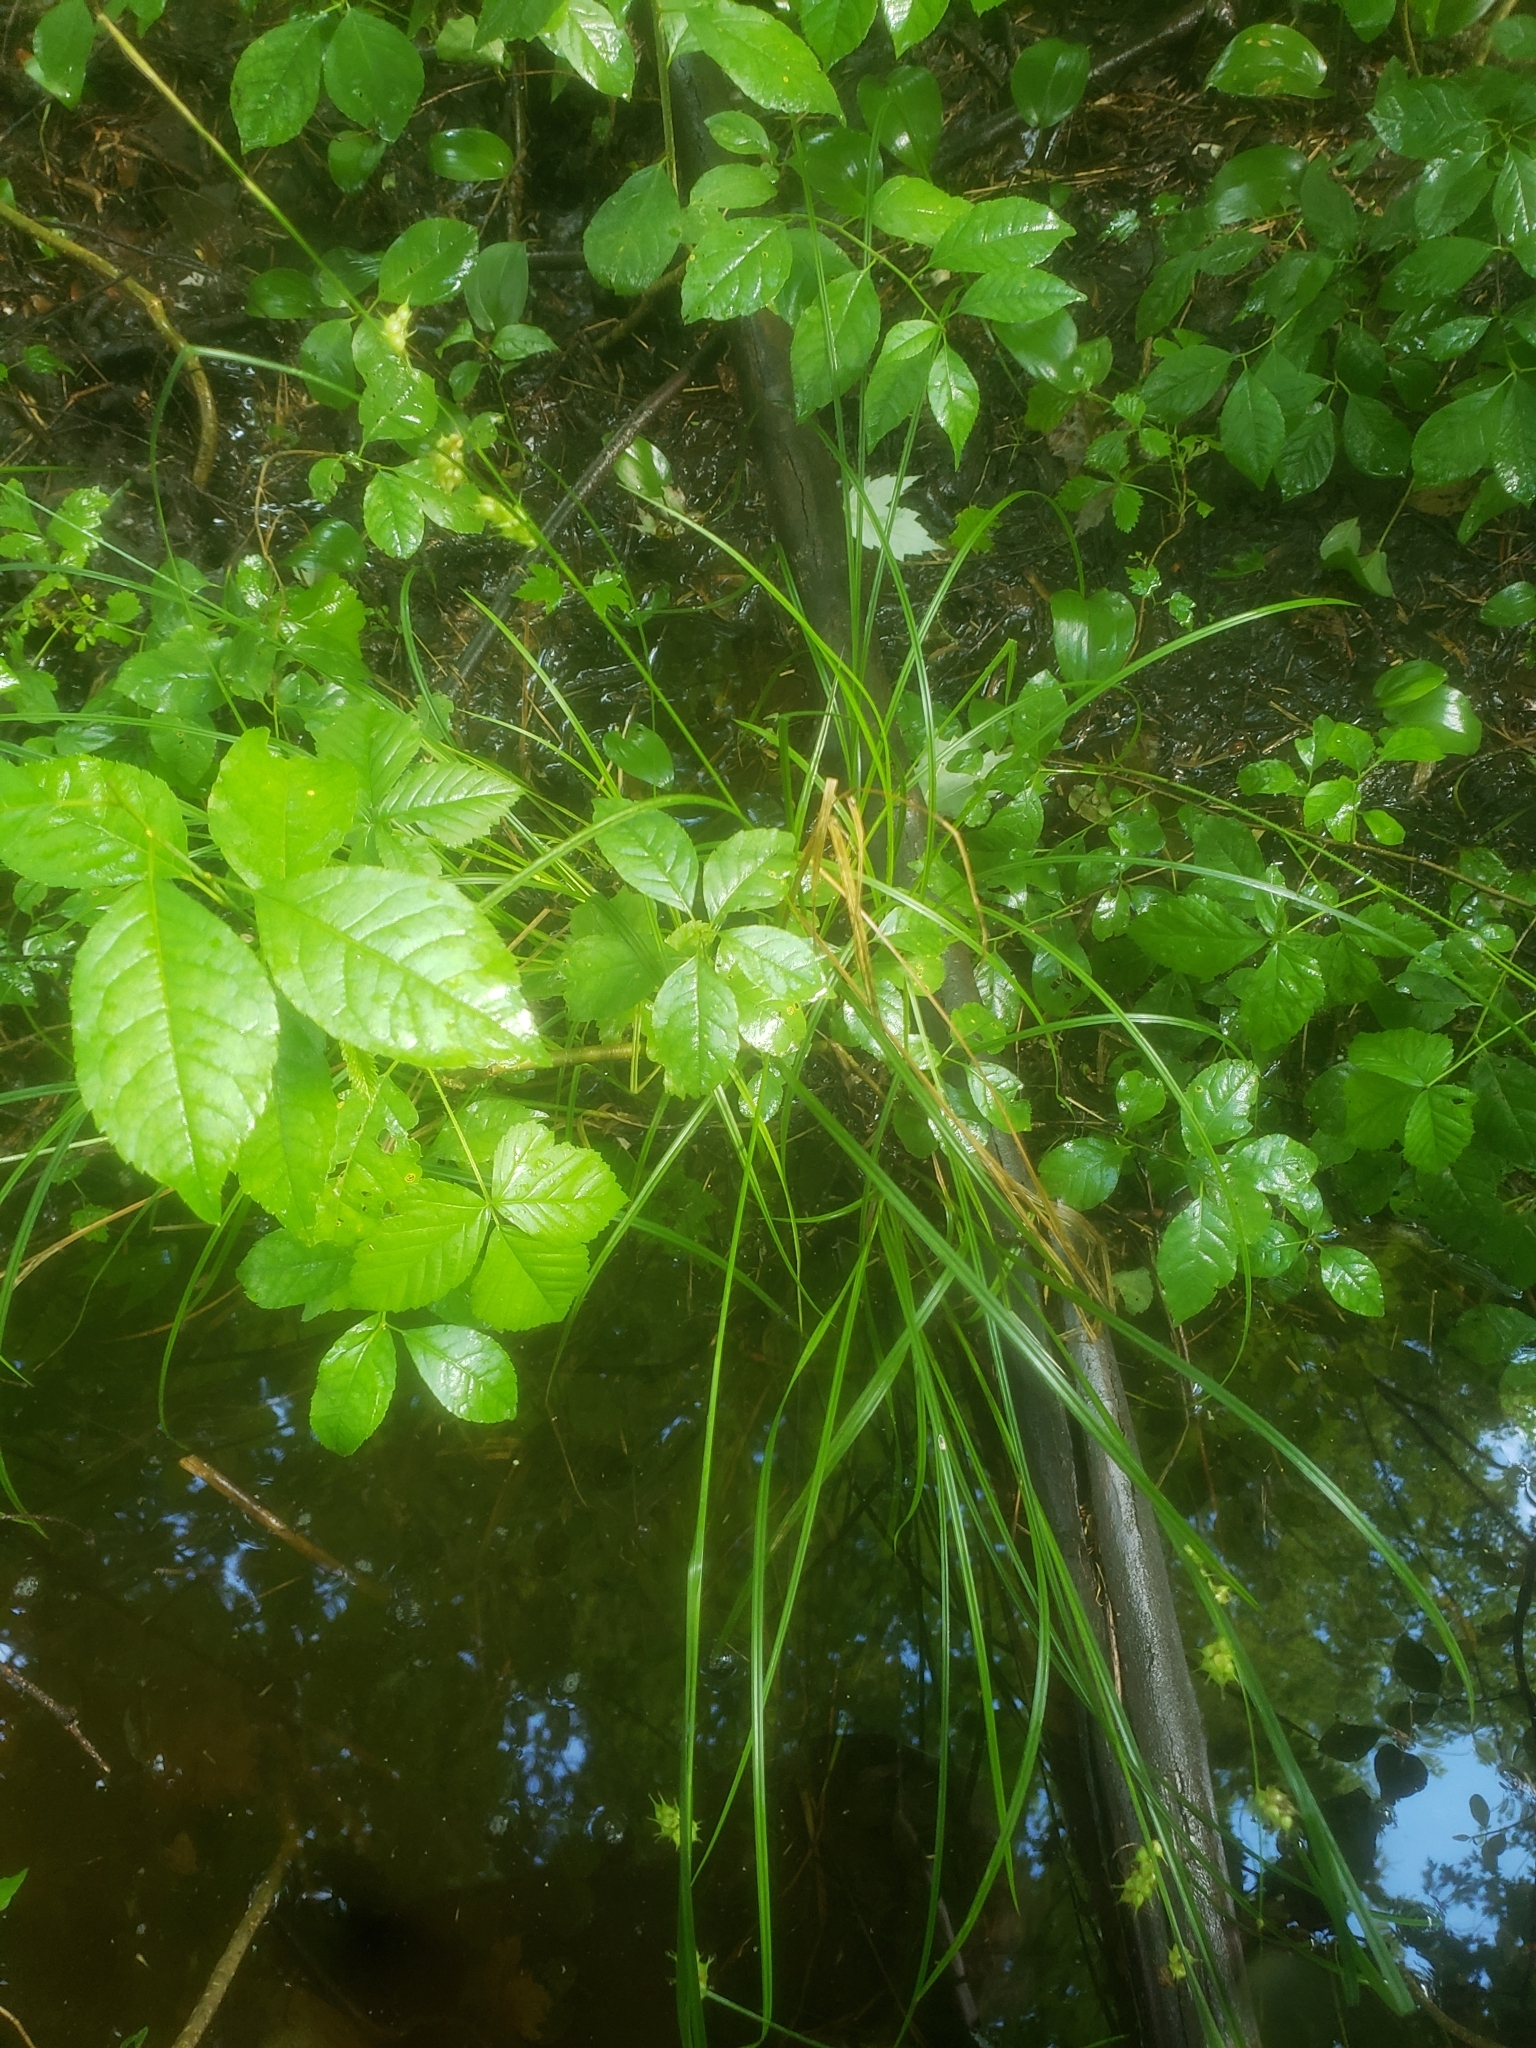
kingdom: Plantae
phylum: Tracheophyta
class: Liliopsida
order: Poales
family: Cyperaceae
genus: Carex
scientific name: Carex tuckermanii
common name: Tuckerman's sedge
